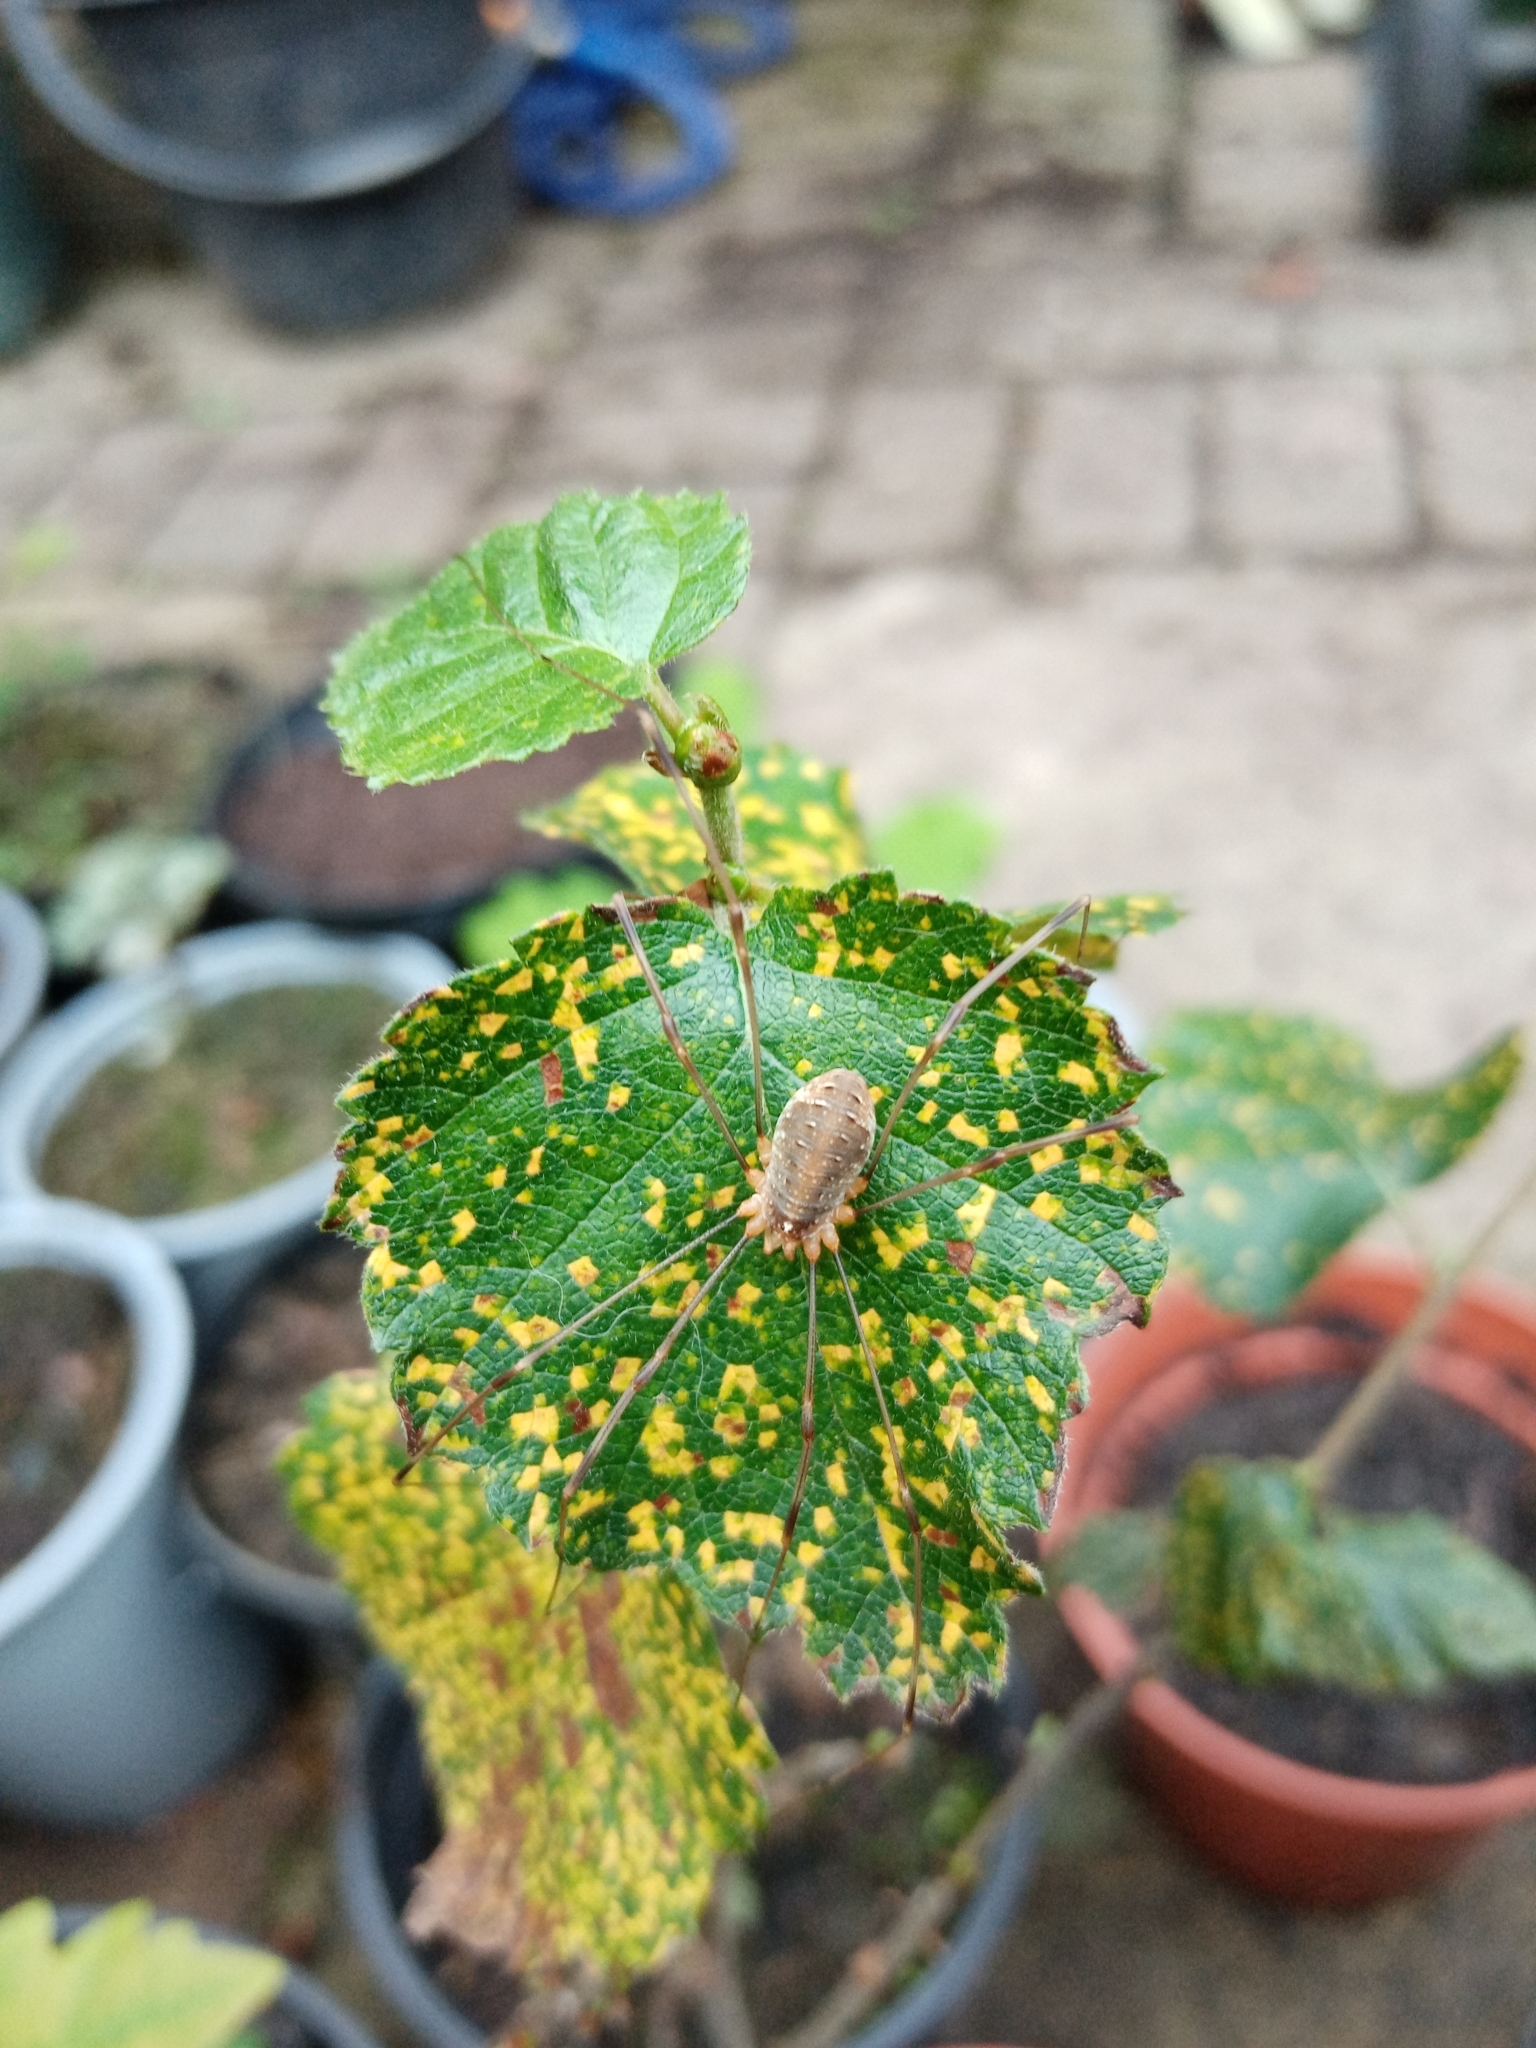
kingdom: Animalia
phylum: Arthropoda
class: Arachnida
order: Opiliones
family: Phalangiidae
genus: Opilio
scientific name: Opilio canestrinii
